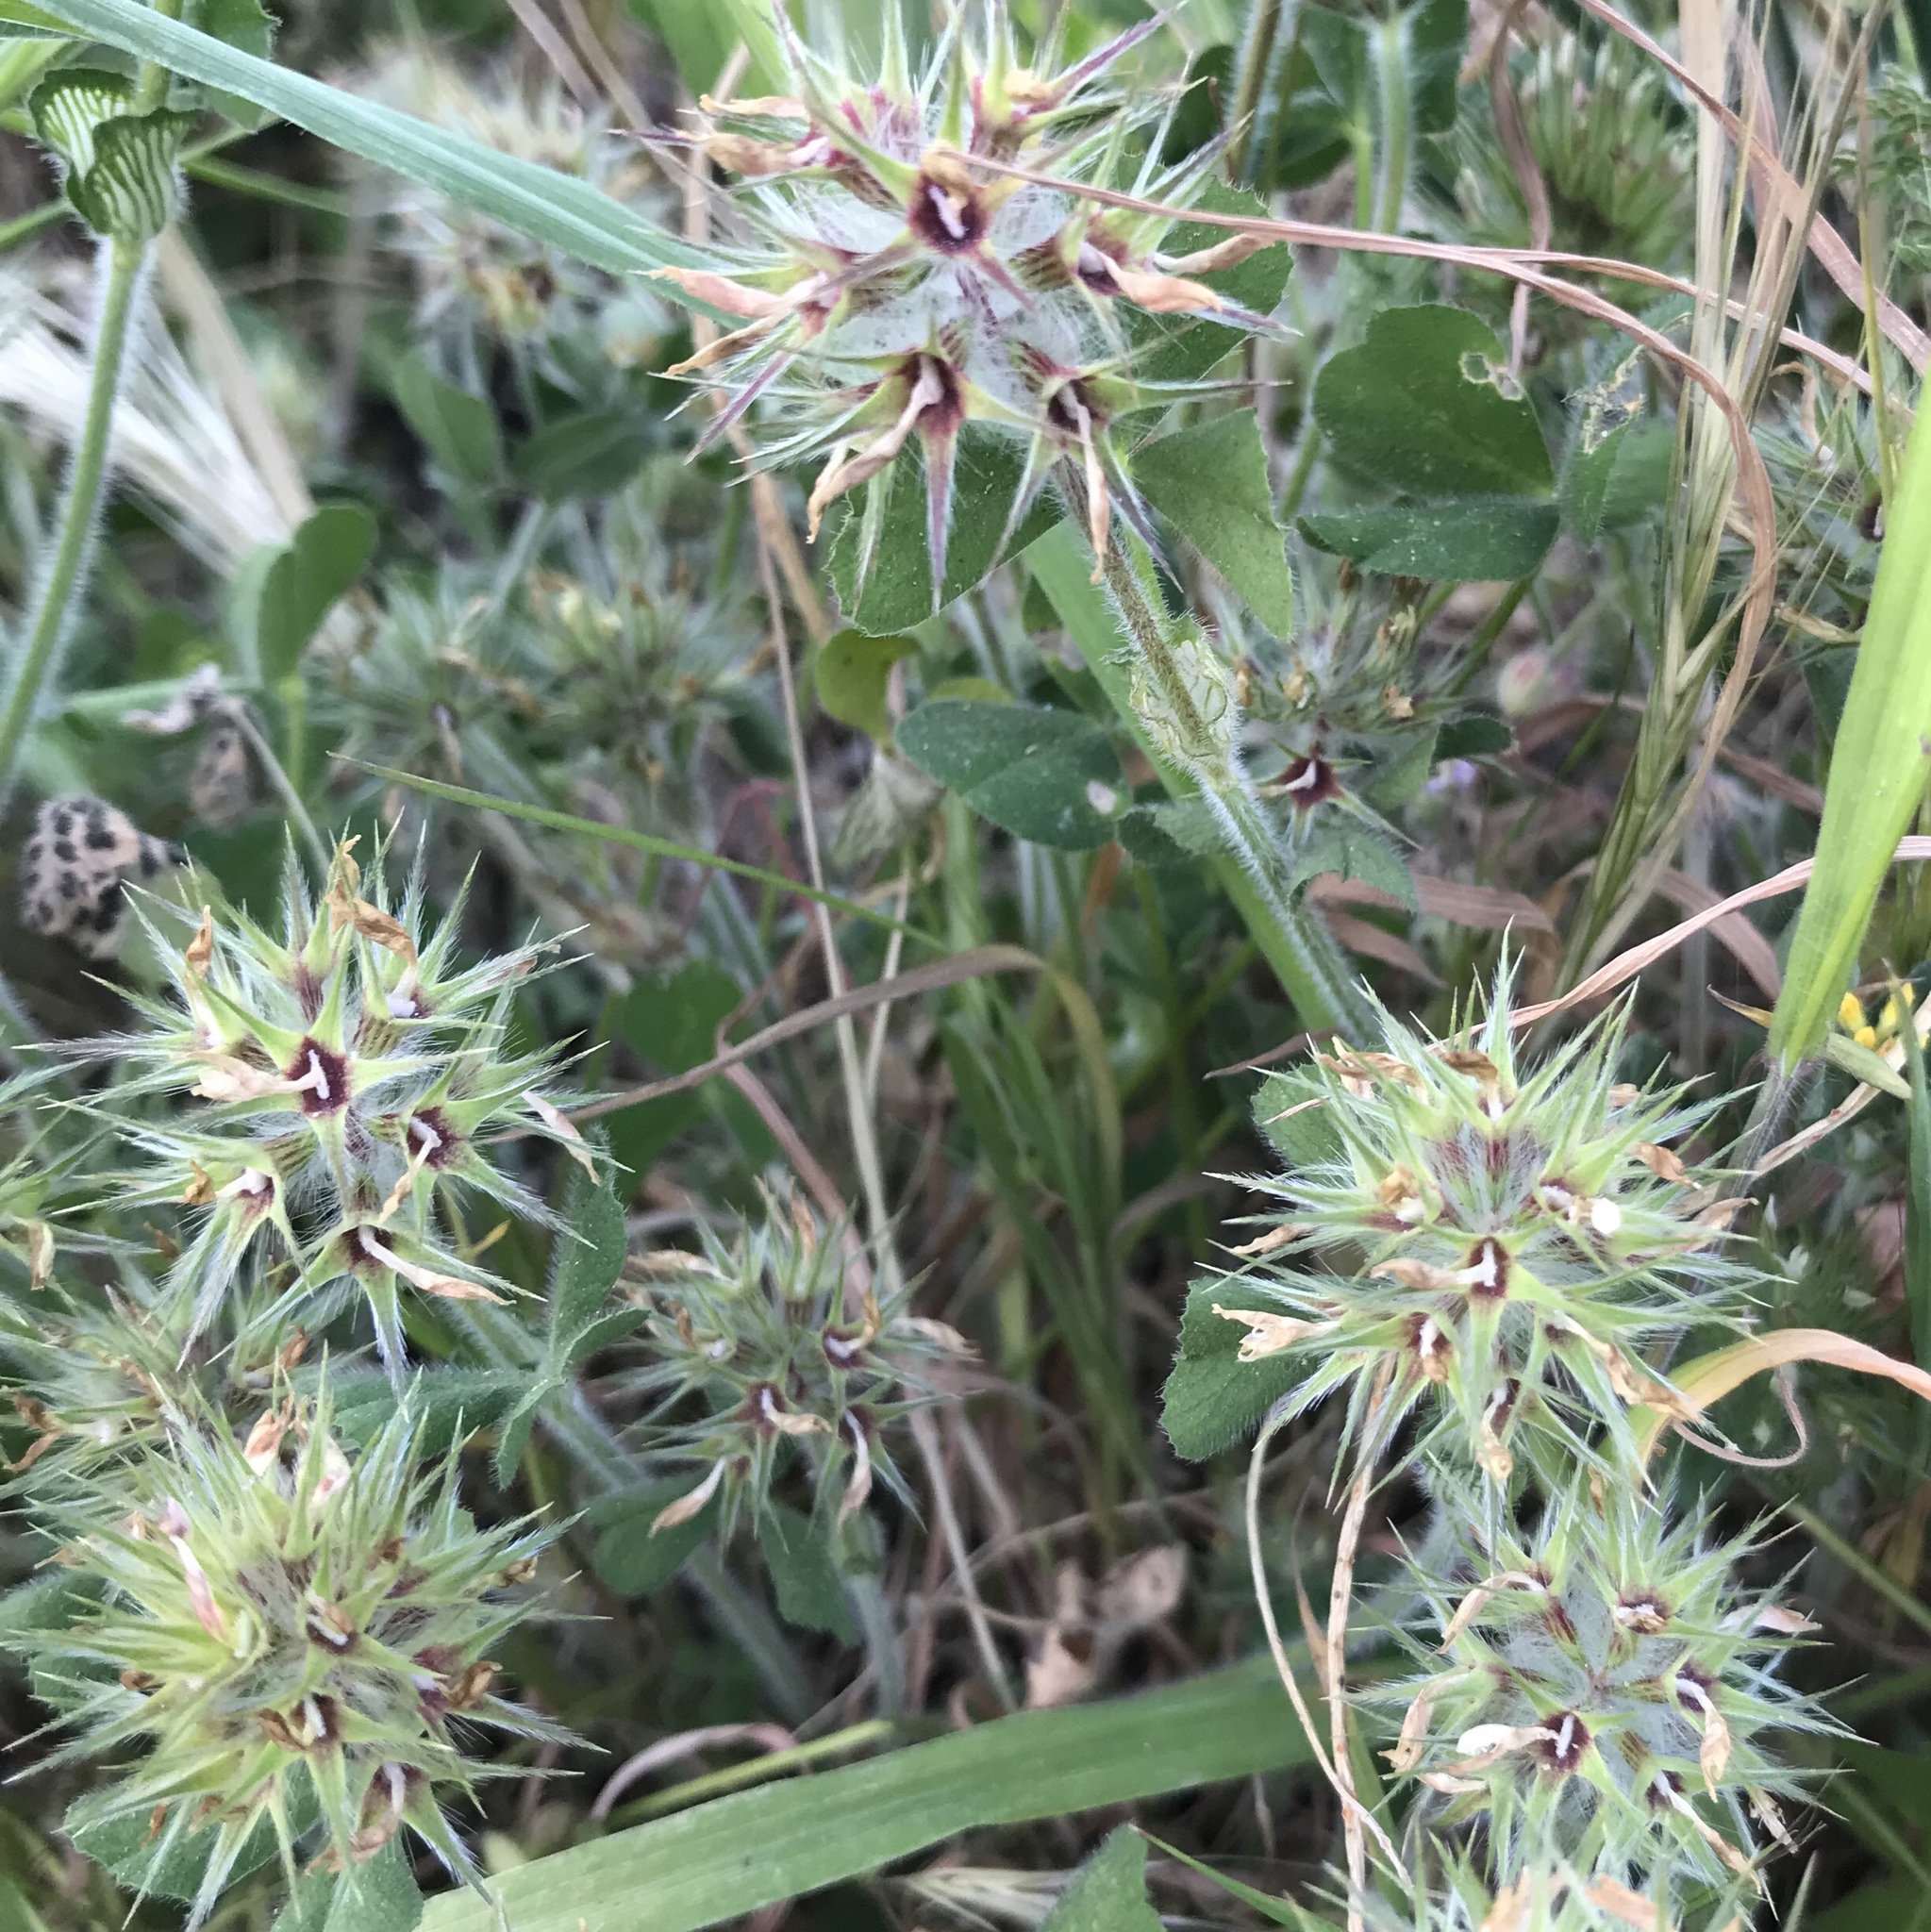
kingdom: Plantae
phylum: Tracheophyta
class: Magnoliopsida
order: Fabales
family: Fabaceae
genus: Trifolium
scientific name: Trifolium stellatum
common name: Starry clover
